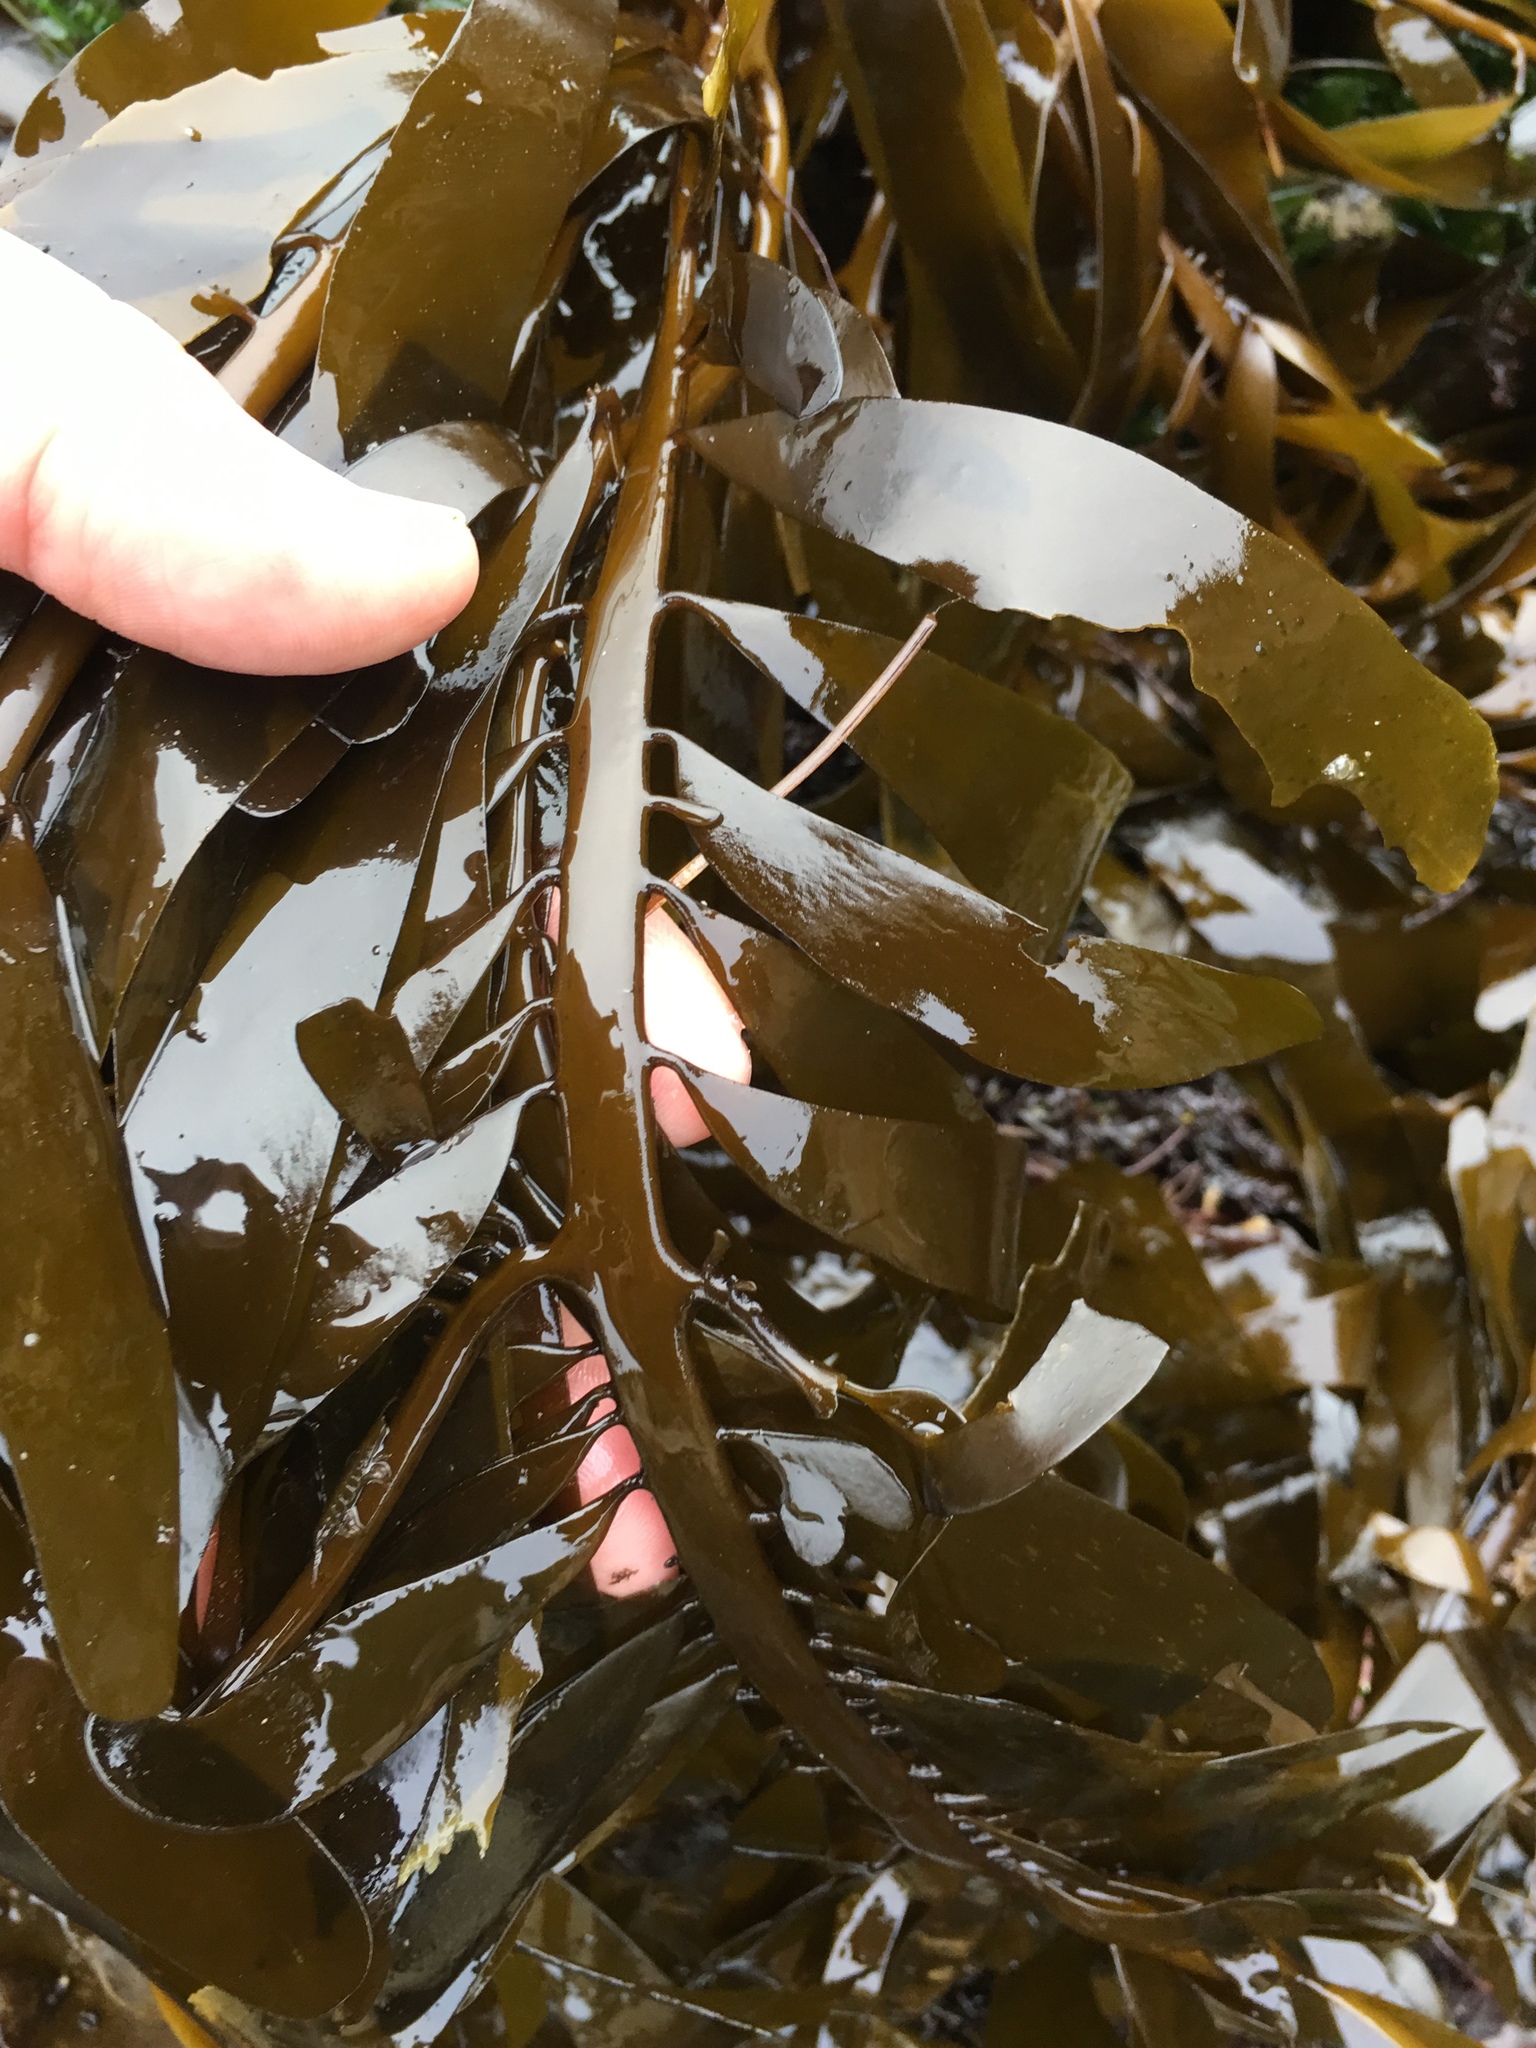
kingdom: Chromista
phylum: Ochrophyta
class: Phaeophyceae
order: Laminariales
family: Lessoniaceae
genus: Egregia
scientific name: Egregia menziesii
